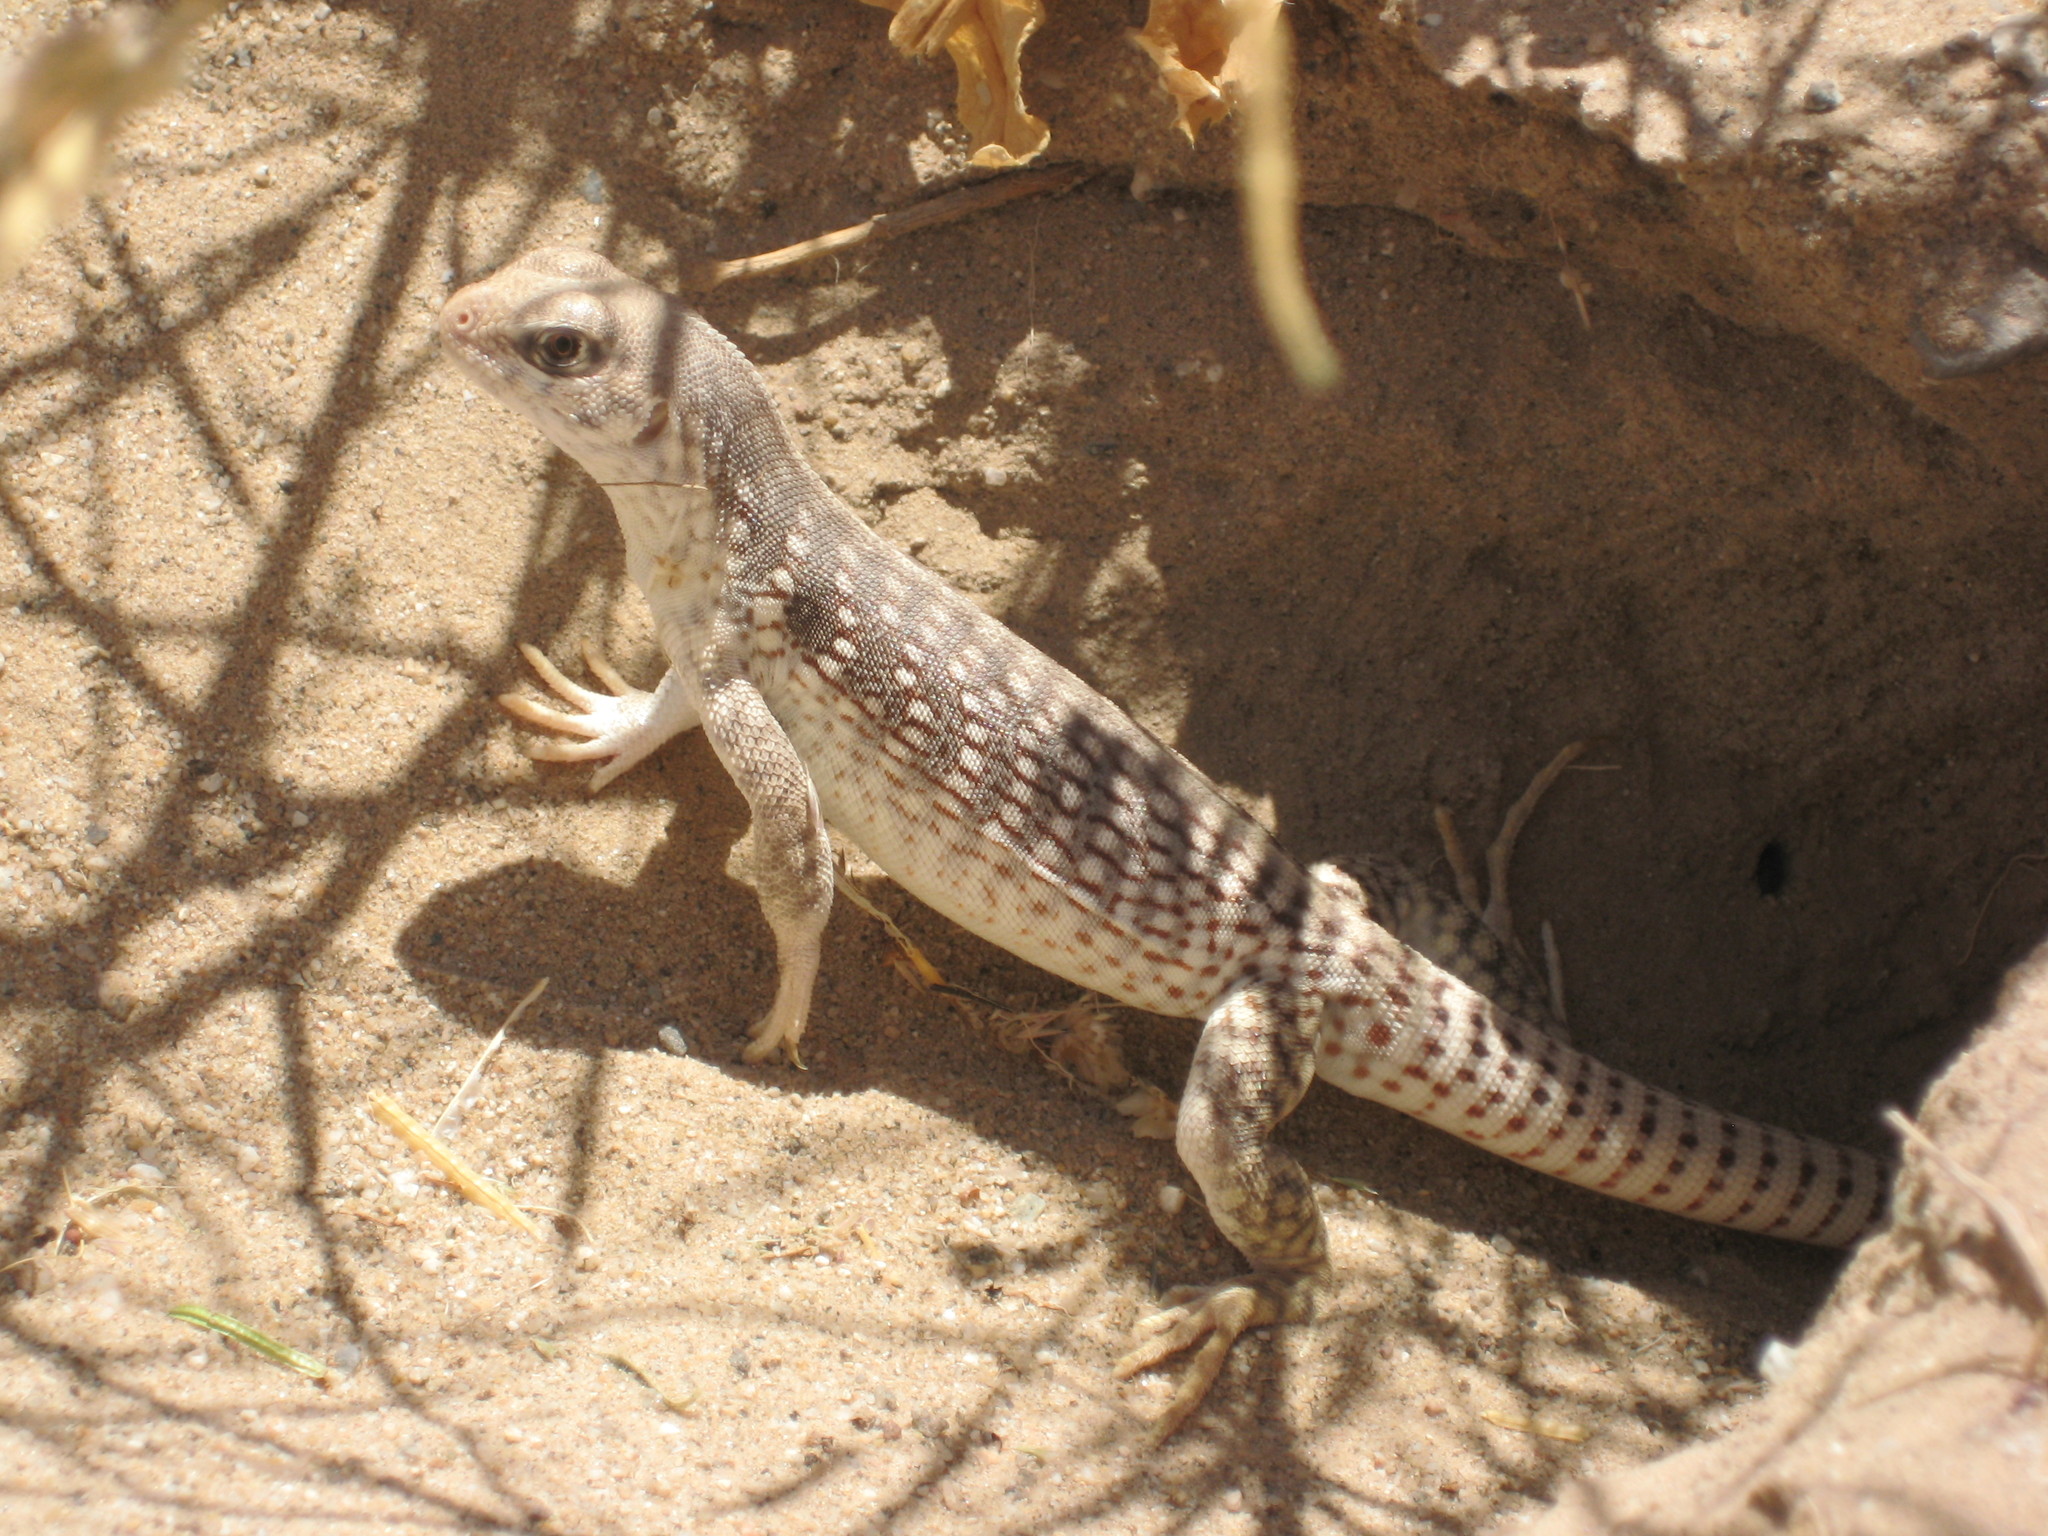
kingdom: Animalia
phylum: Chordata
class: Squamata
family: Iguanidae
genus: Dipsosaurus
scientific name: Dipsosaurus dorsalis
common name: Desert iguana
